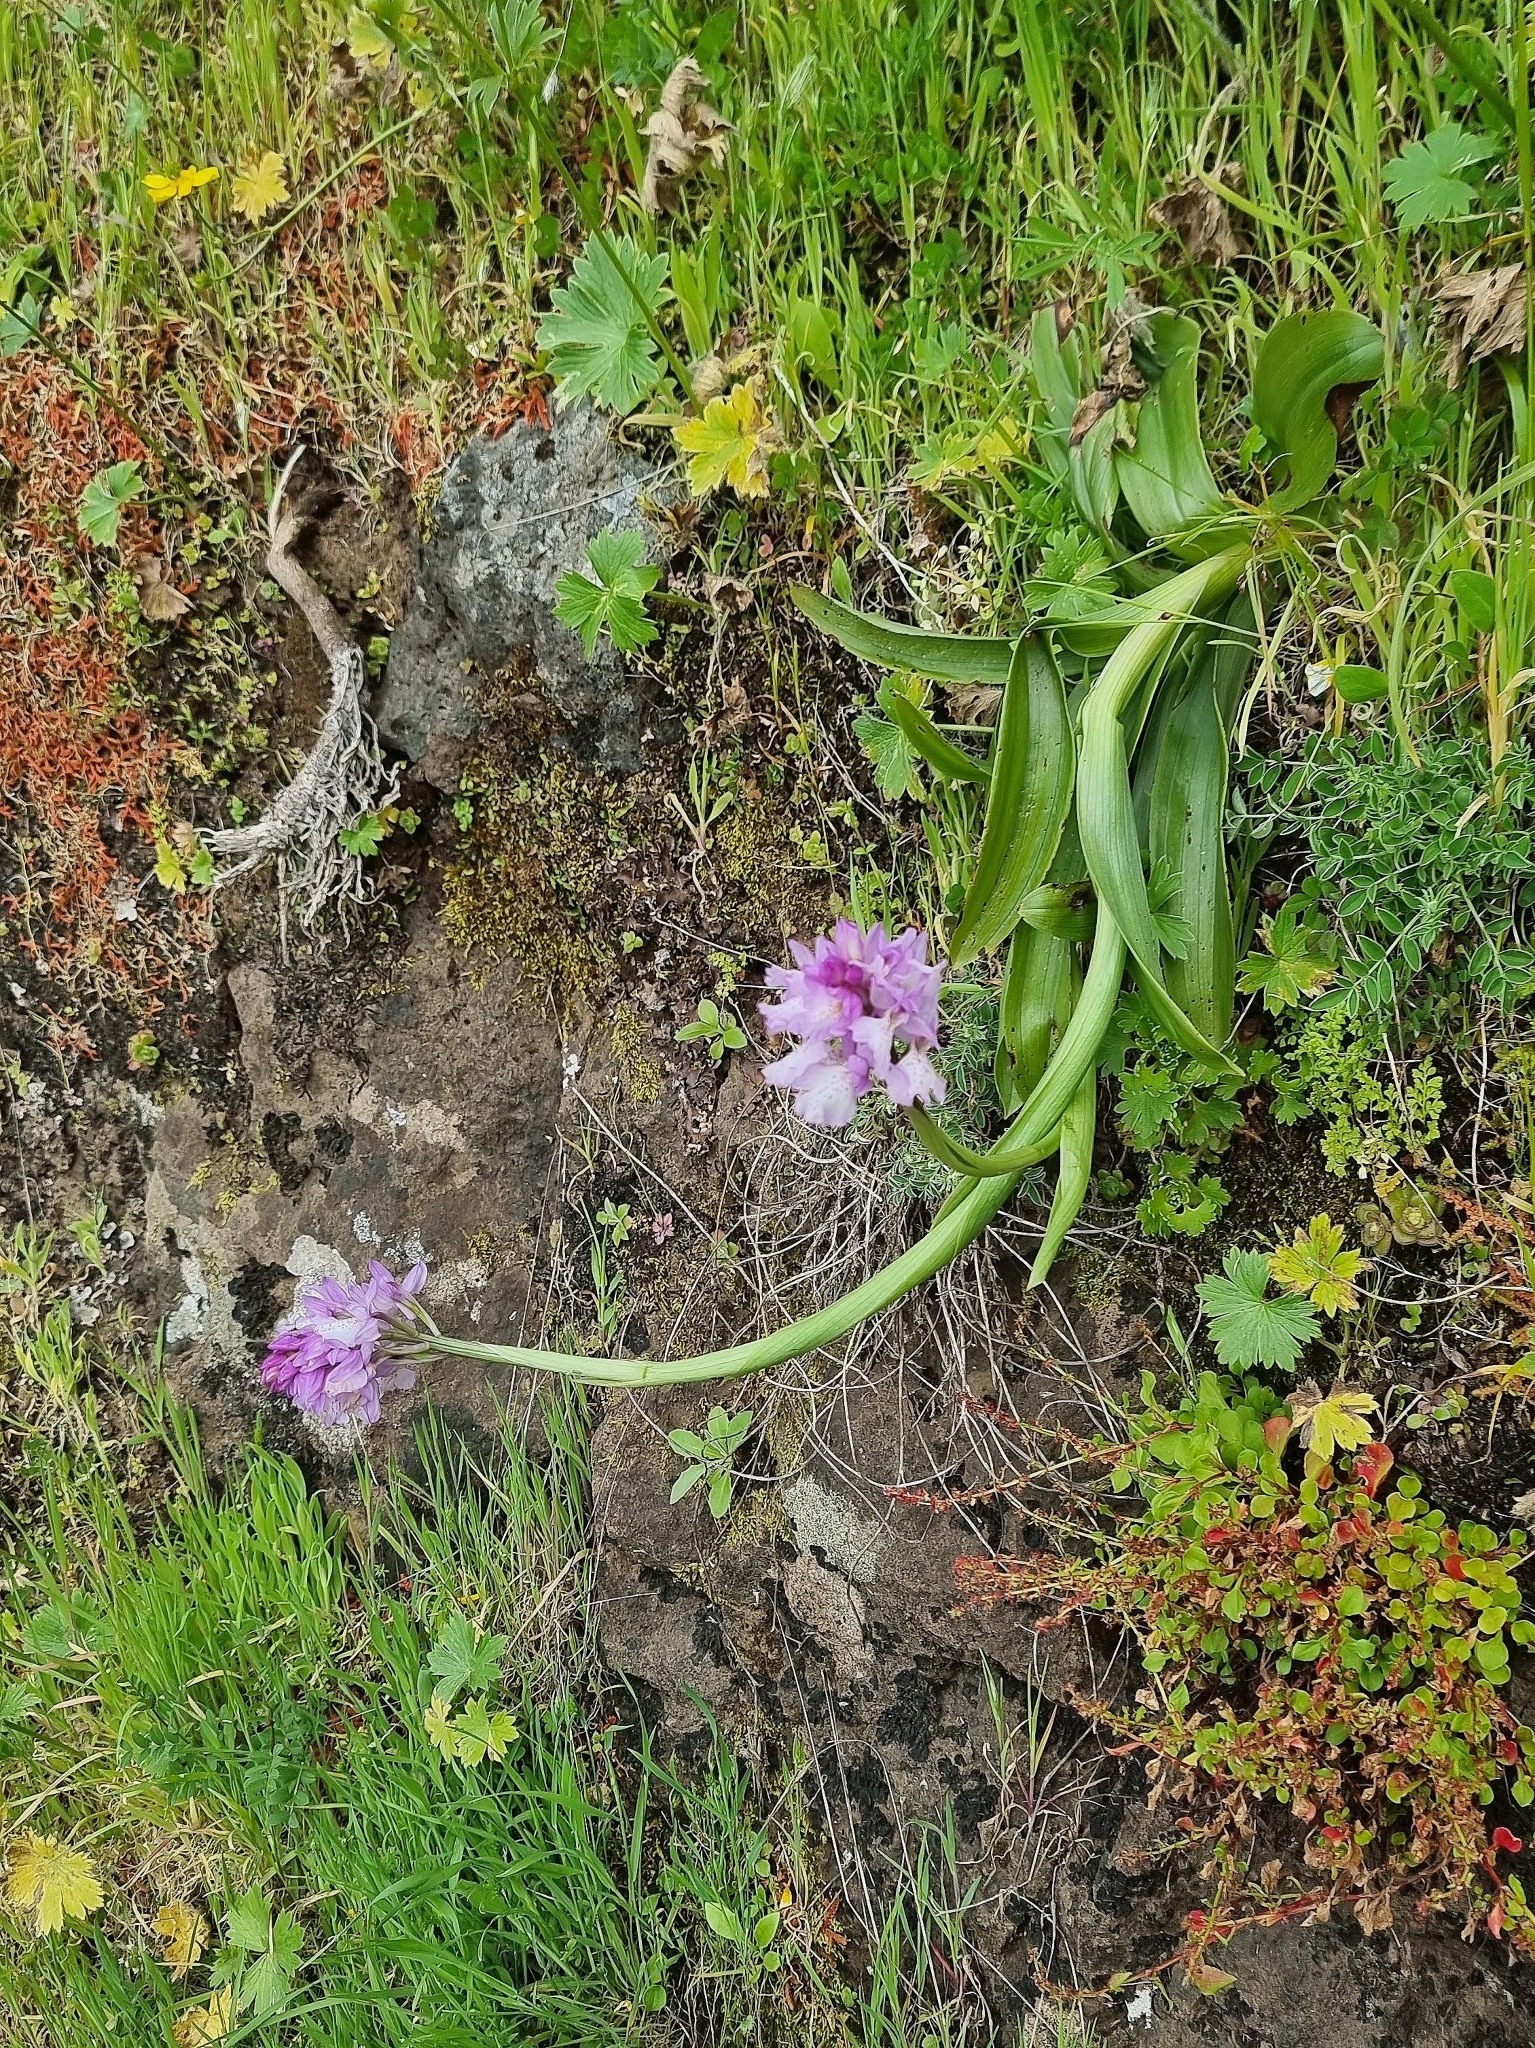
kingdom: Plantae
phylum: Tracheophyta
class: Liliopsida
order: Asparagales
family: Orchidaceae
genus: Orchis
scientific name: Orchis mascula
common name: Early-purple orchid
